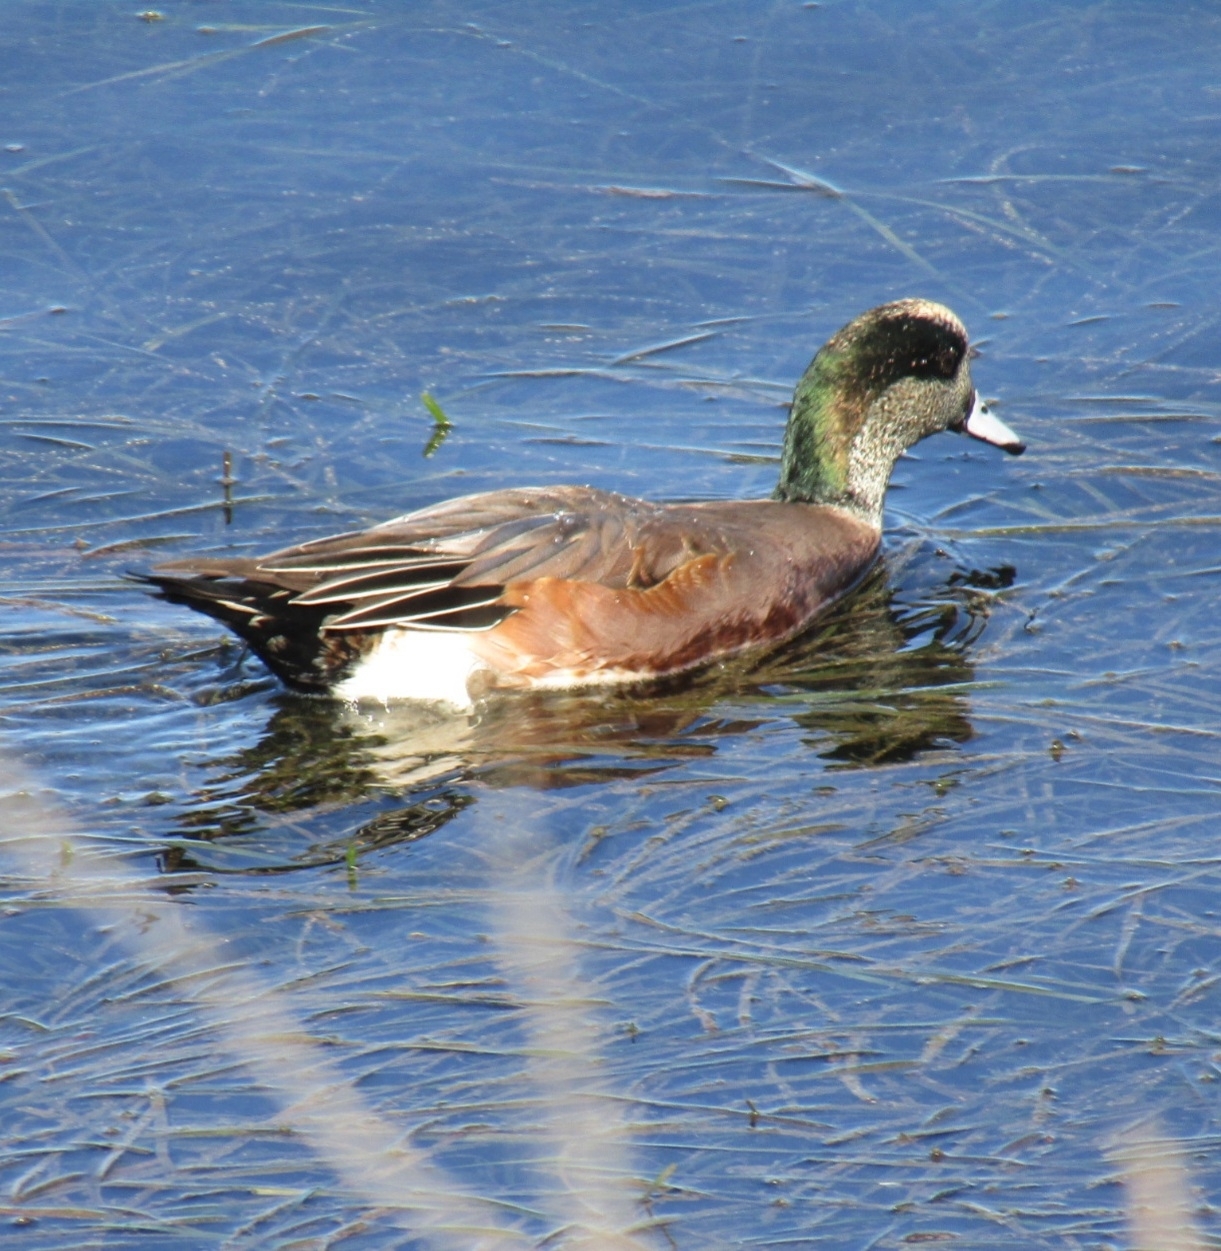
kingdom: Animalia
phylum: Chordata
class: Aves
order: Anseriformes
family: Anatidae
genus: Mareca
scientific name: Mareca americana
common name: American wigeon
